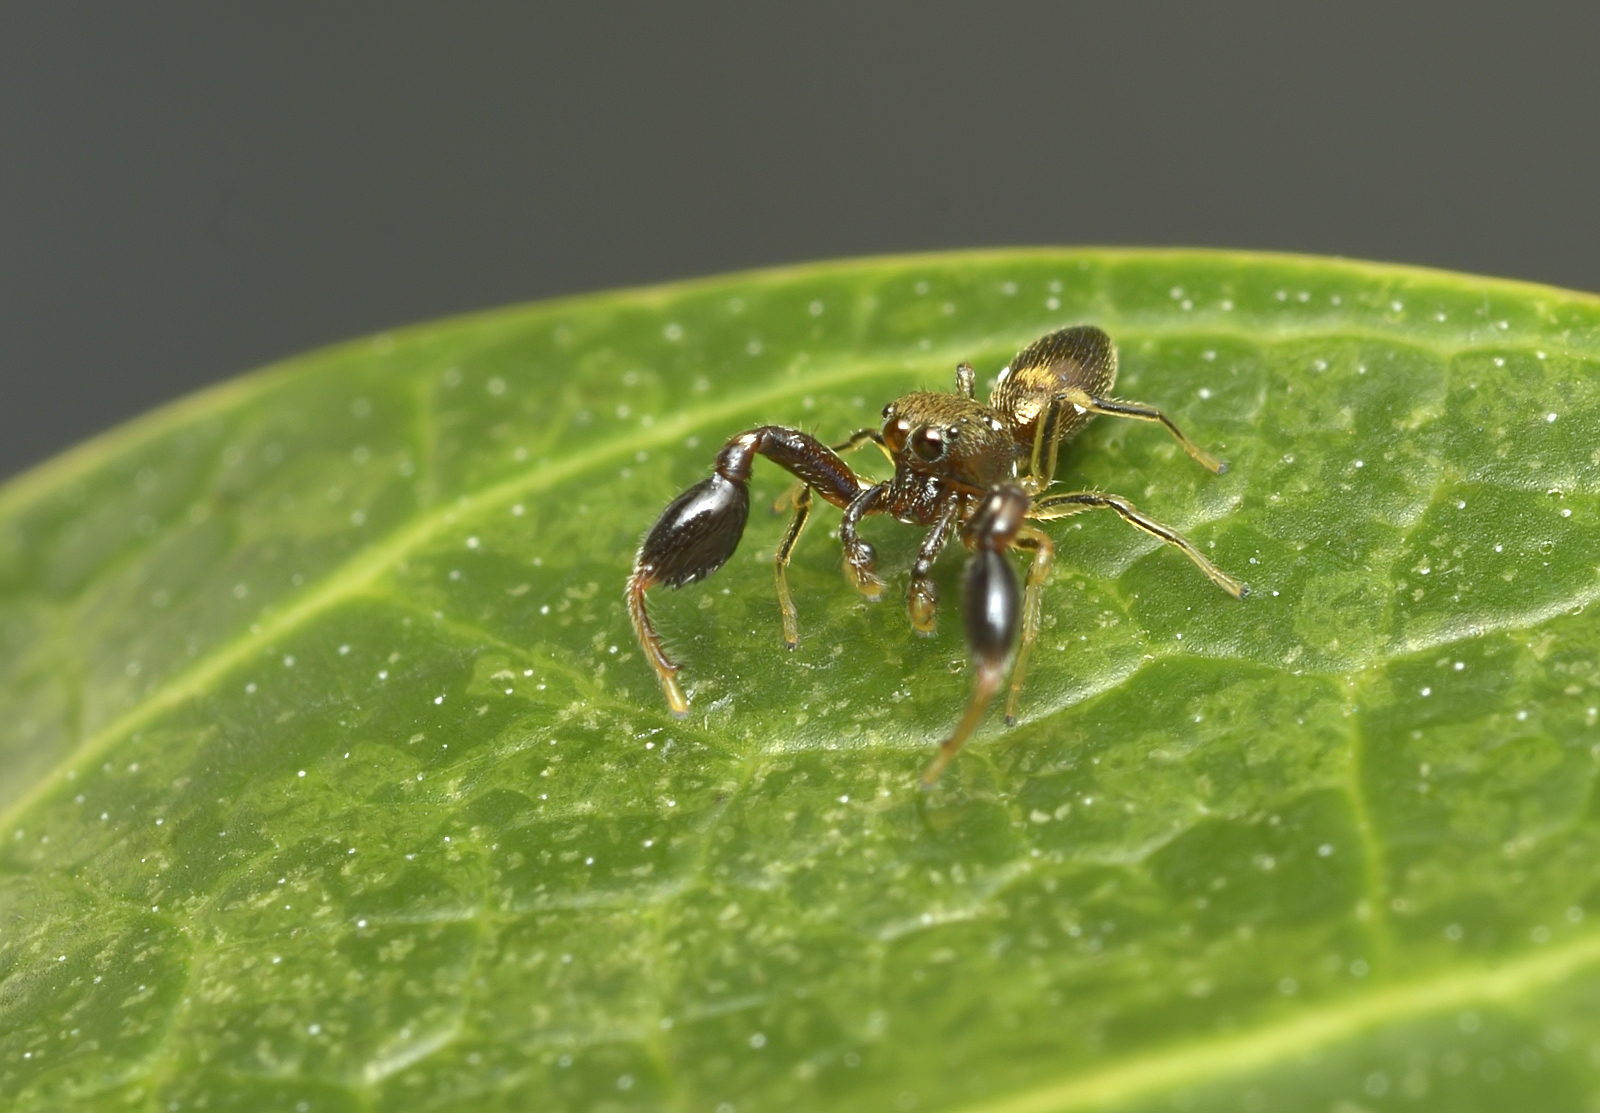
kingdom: Animalia
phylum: Arthropoda
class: Arachnida
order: Araneae
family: Salticidae
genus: Marengo
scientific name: Marengo batheryensis
